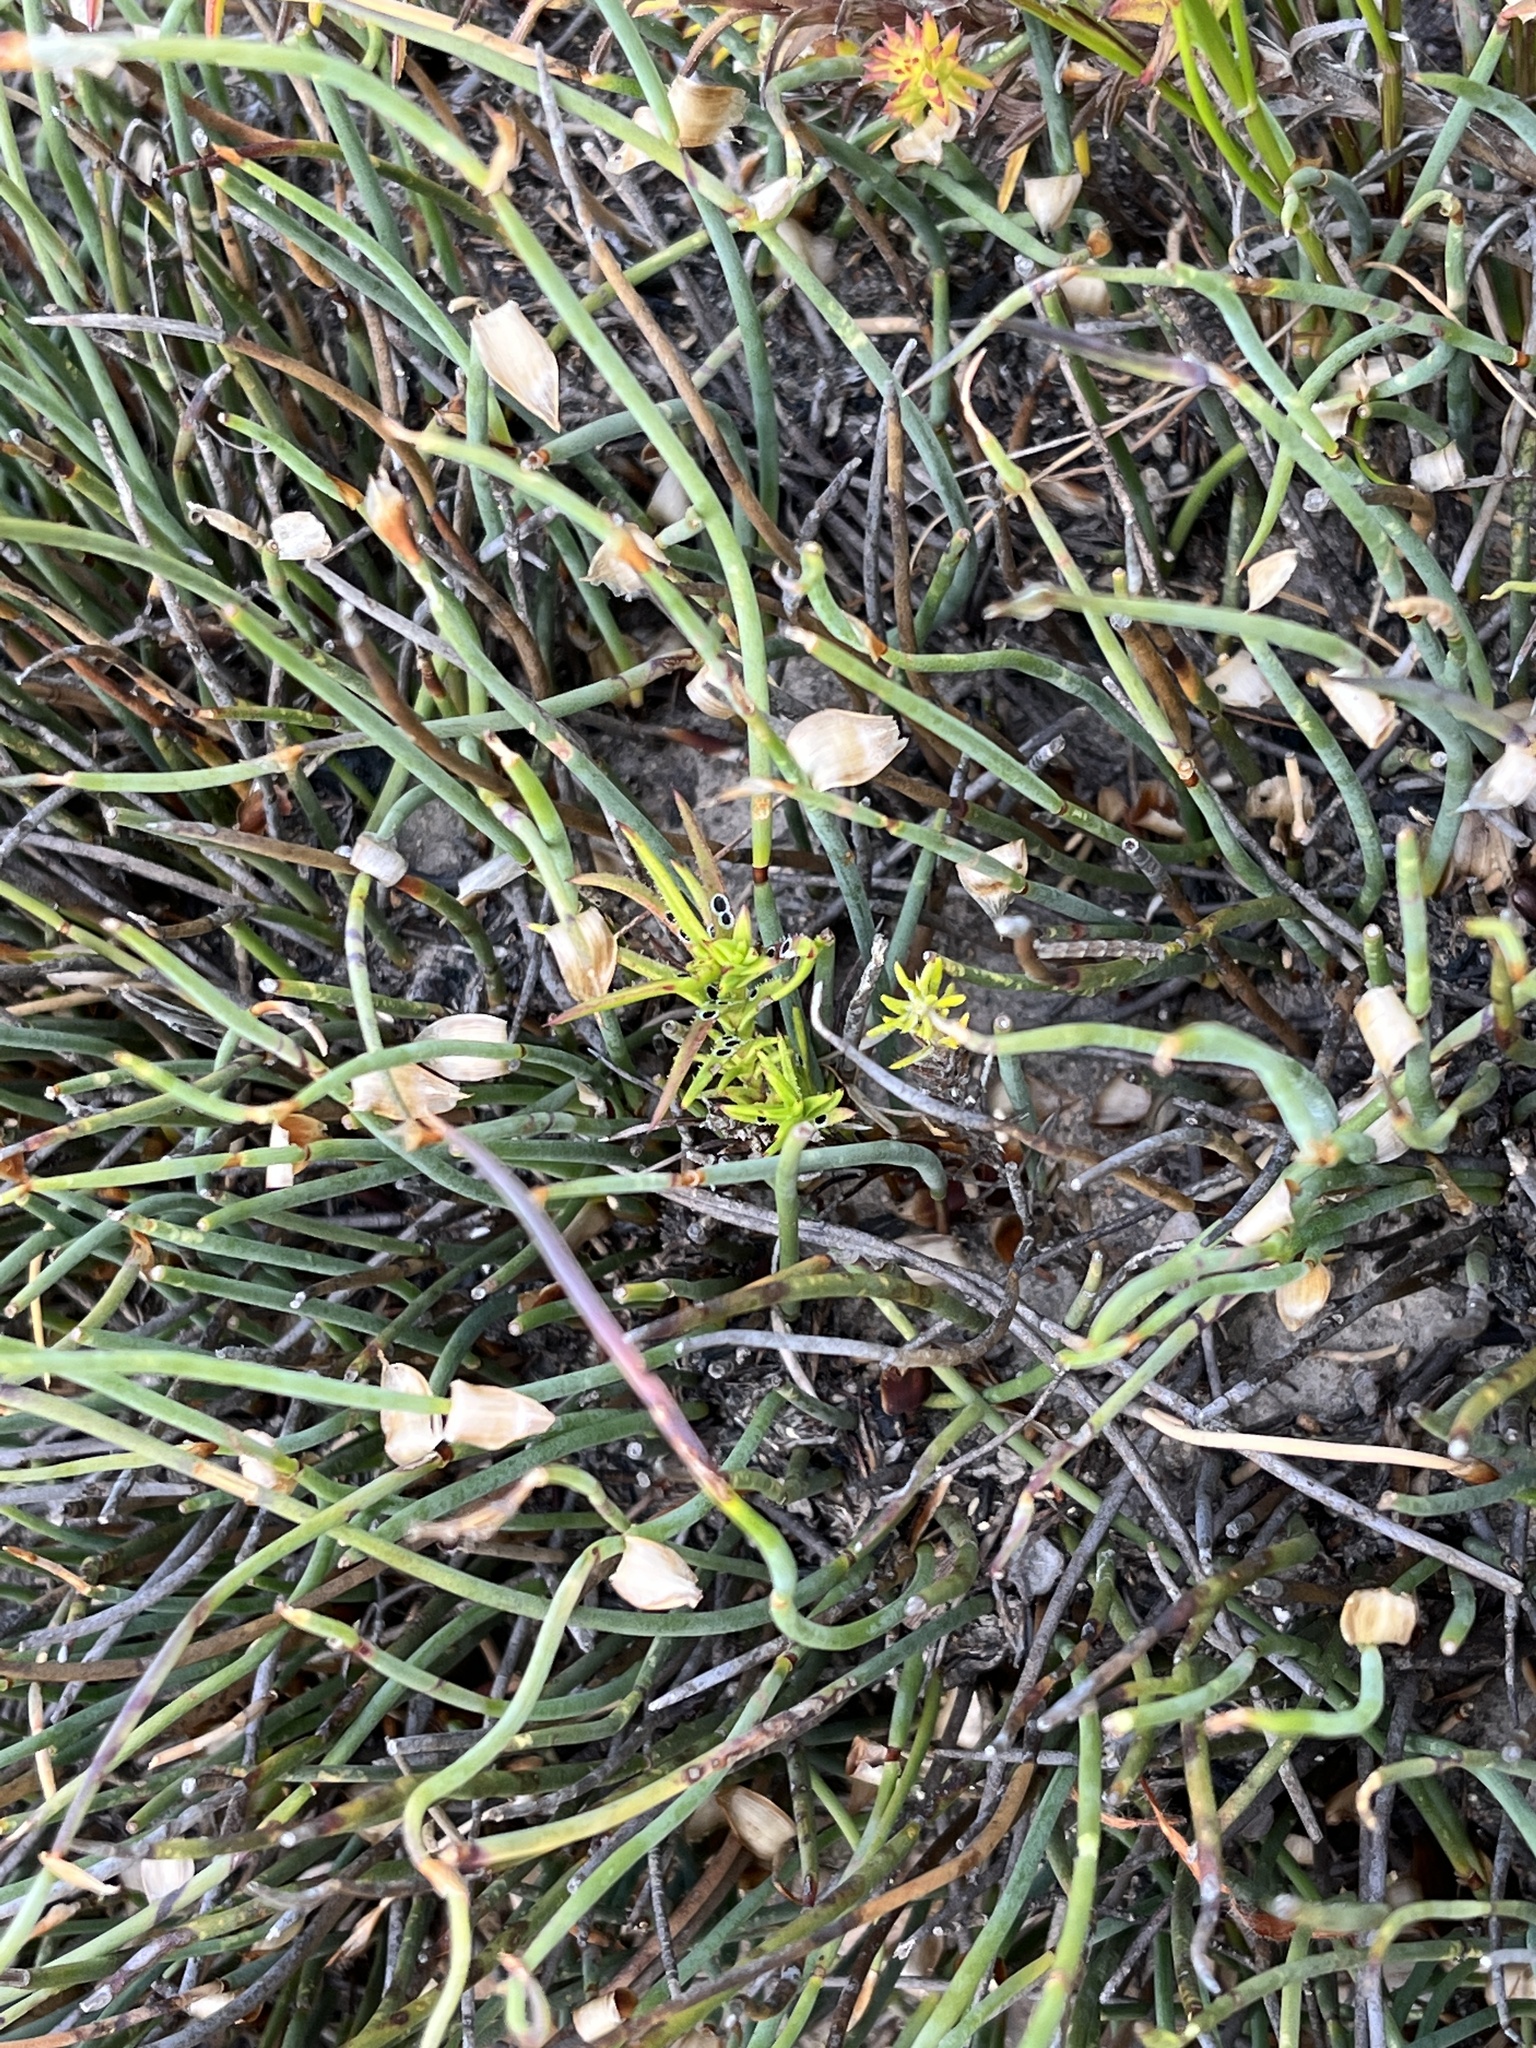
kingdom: Plantae
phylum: Tracheophyta
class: Liliopsida
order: Poales
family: Restionaceae
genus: Elegia
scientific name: Elegia squamosa
